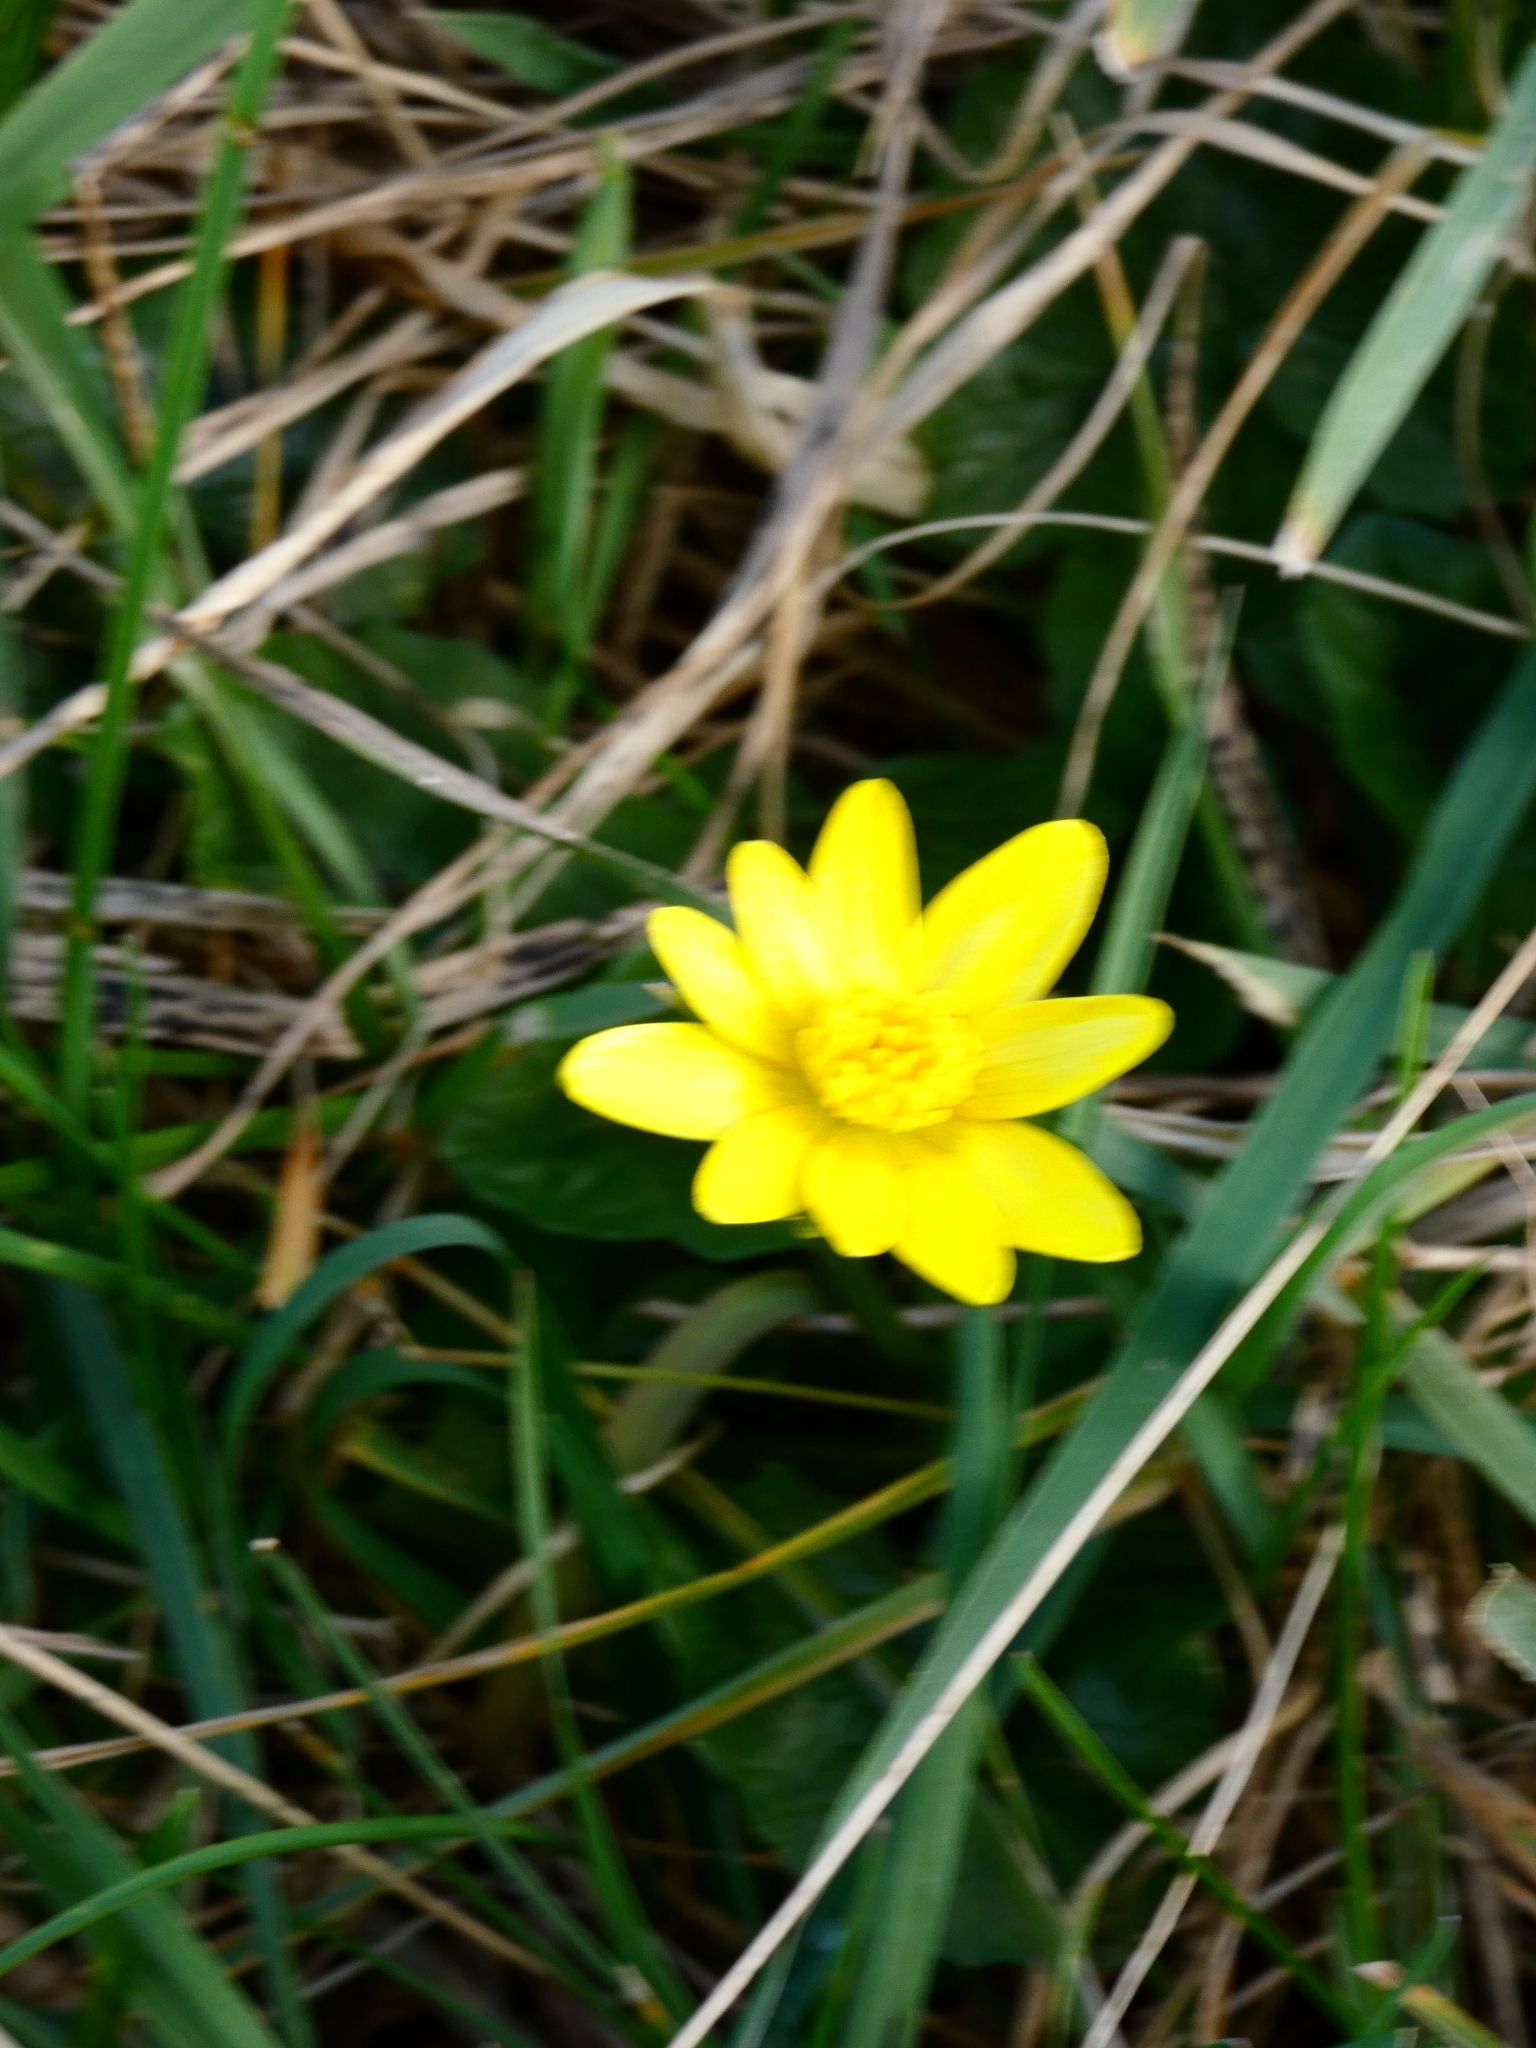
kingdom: Plantae
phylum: Tracheophyta
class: Magnoliopsida
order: Ranunculales
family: Ranunculaceae
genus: Ficaria
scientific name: Ficaria verna
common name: Lesser celandine
